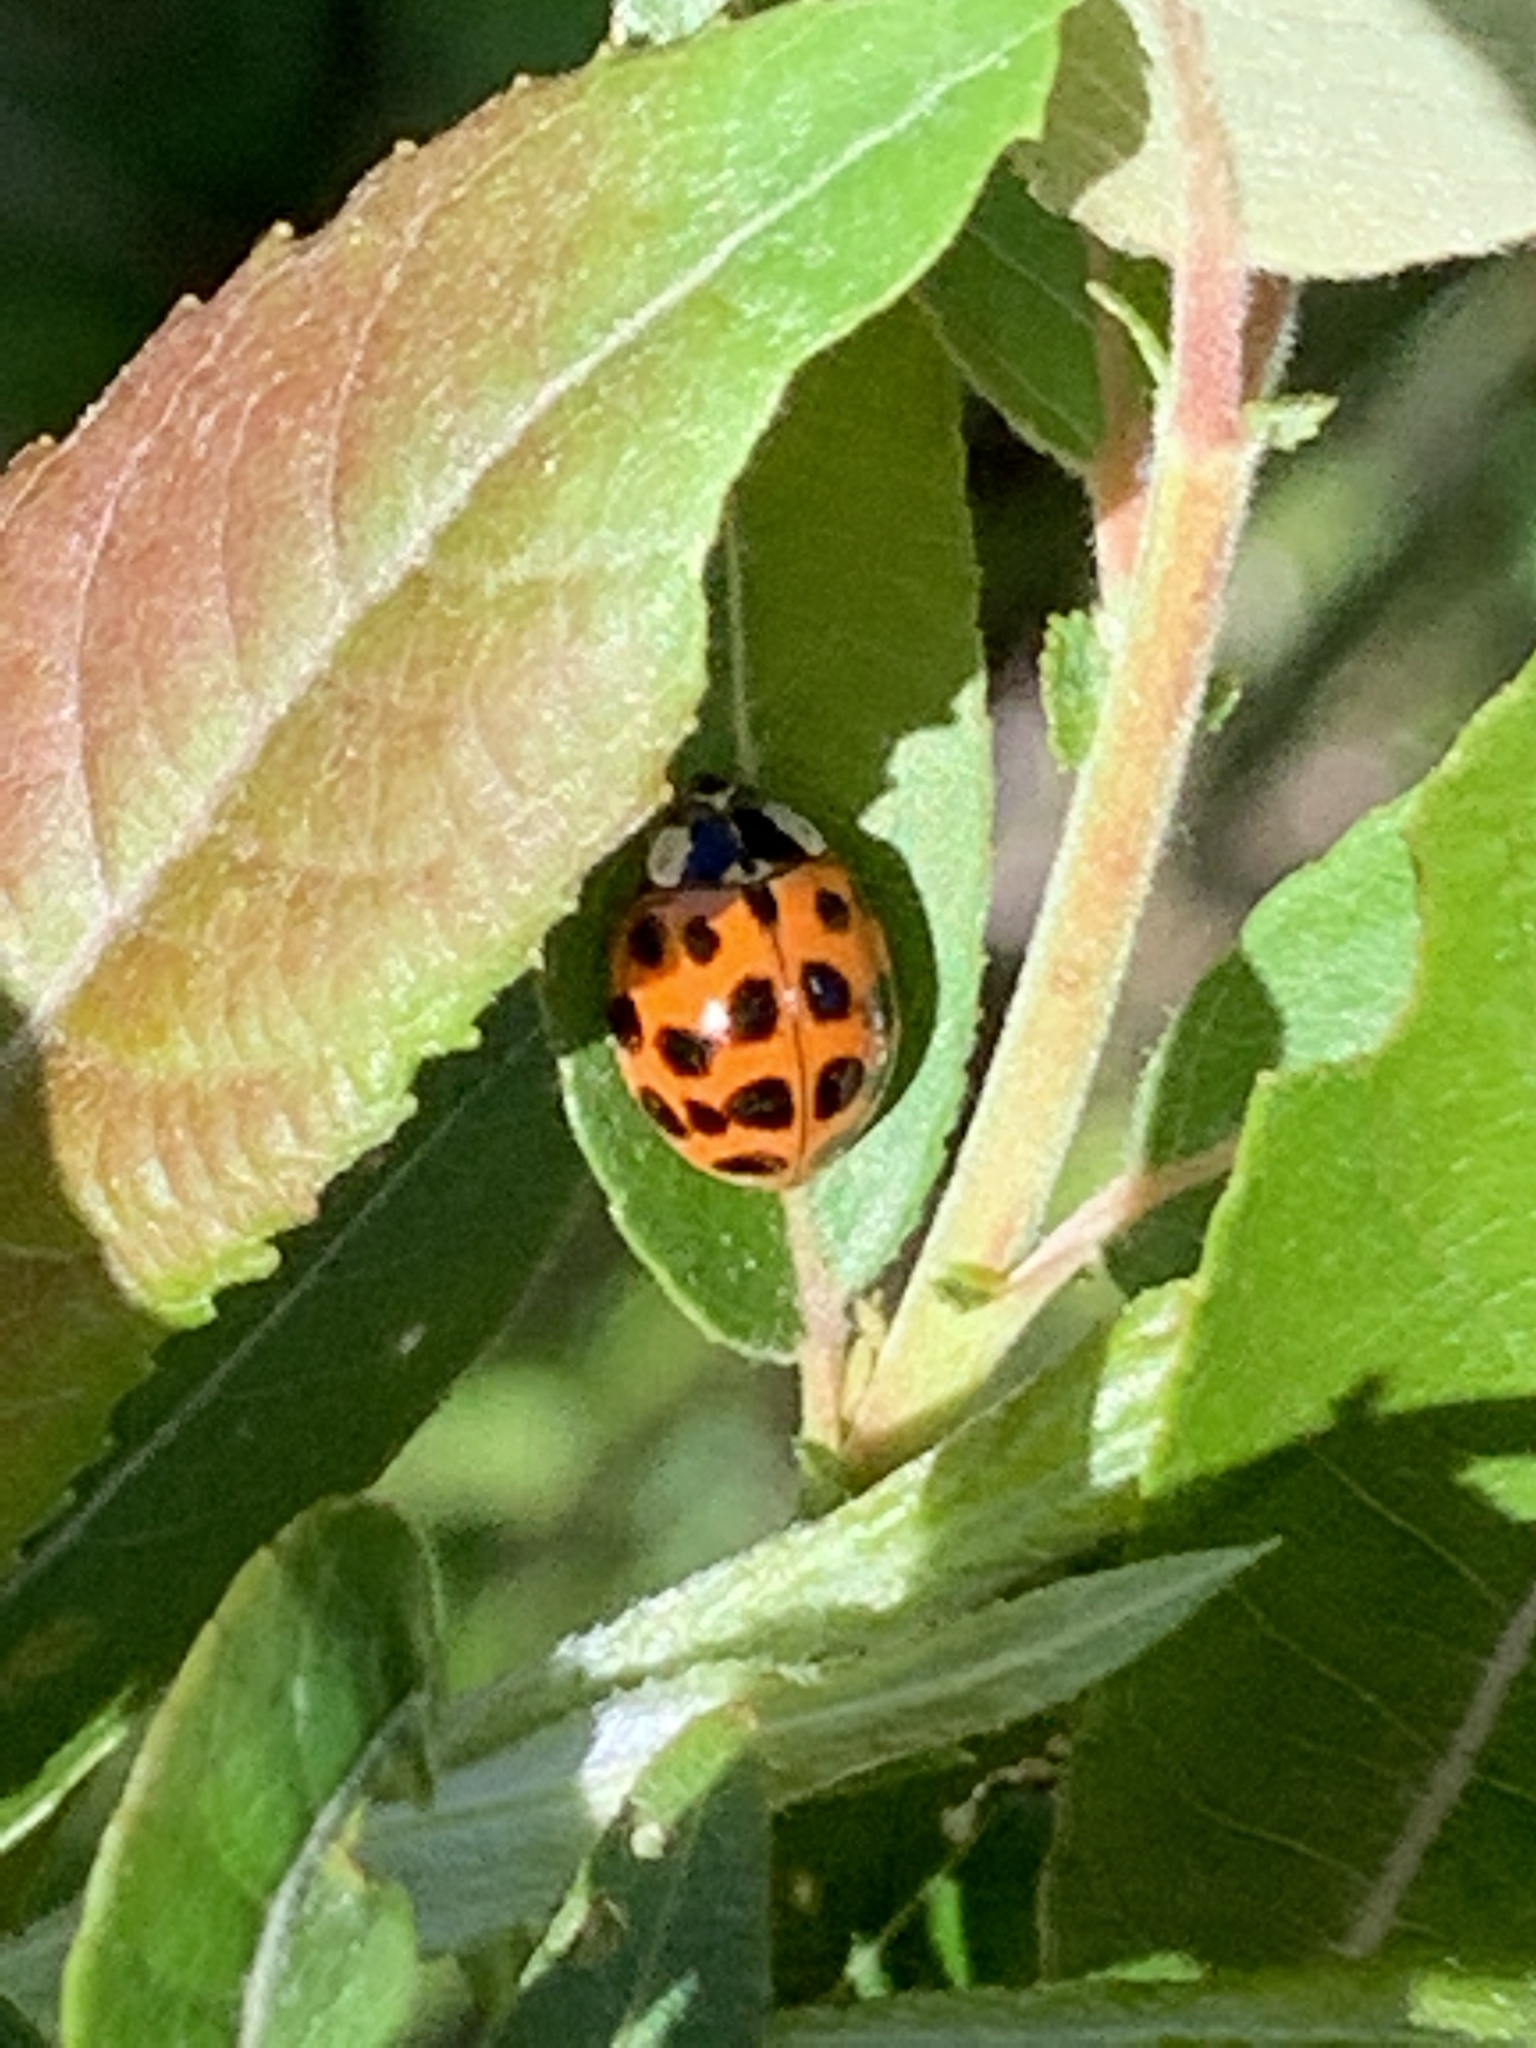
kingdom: Animalia
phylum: Arthropoda
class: Insecta
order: Coleoptera
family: Coccinellidae
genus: Harmonia
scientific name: Harmonia axyridis
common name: Harlequin ladybird
